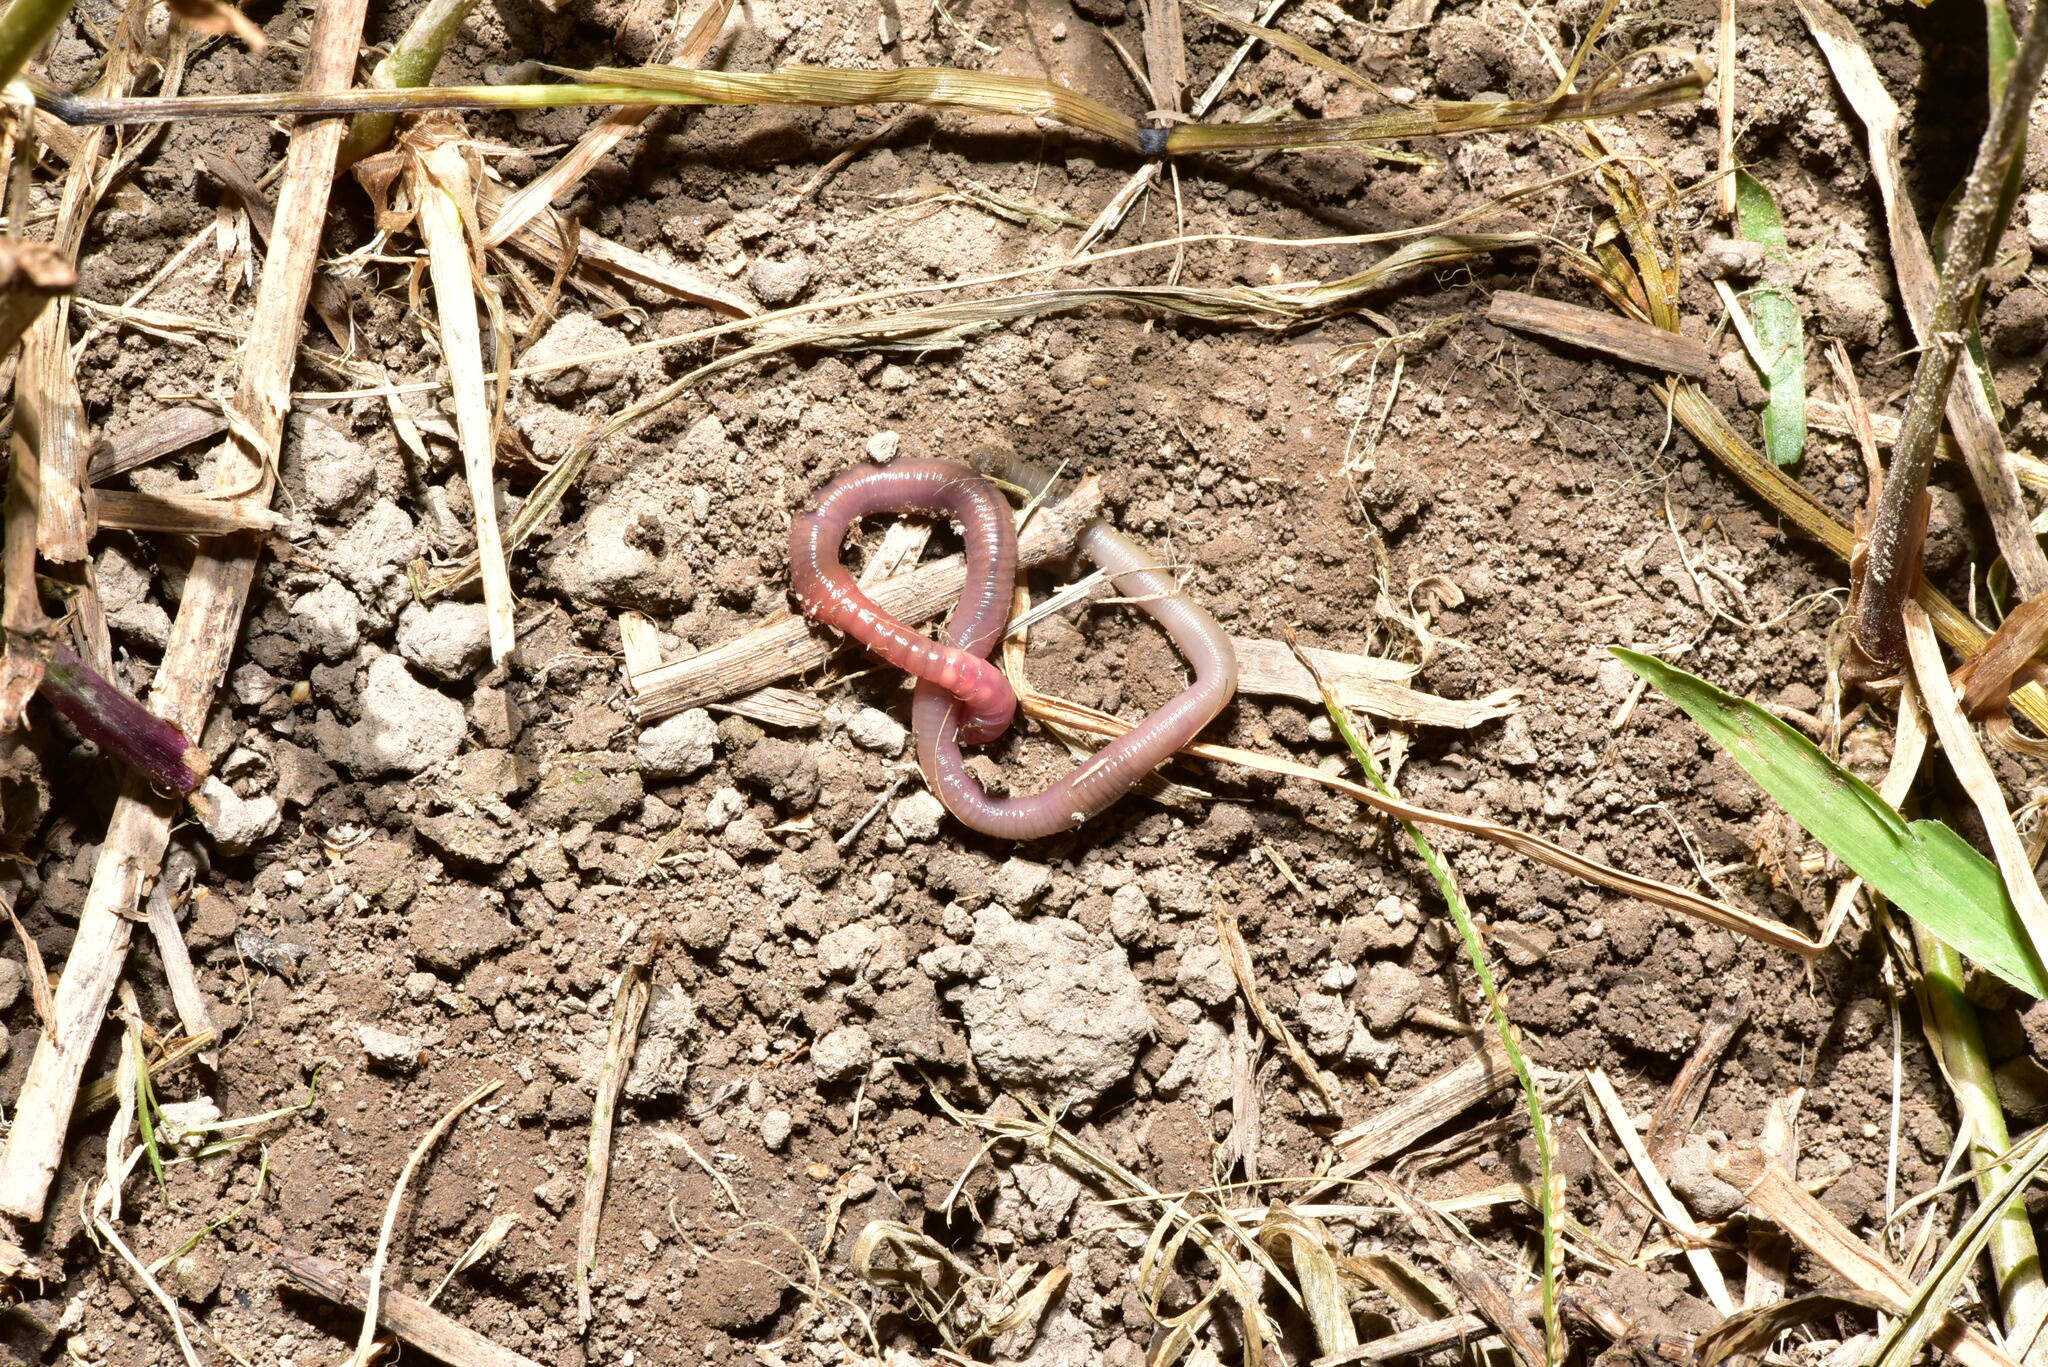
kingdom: Animalia
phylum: Annelida
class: Clitellata
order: Crassiclitellata
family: Rhinodrilidae
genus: Pontoscolex
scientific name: Pontoscolex corethrurus
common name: Earthworm
